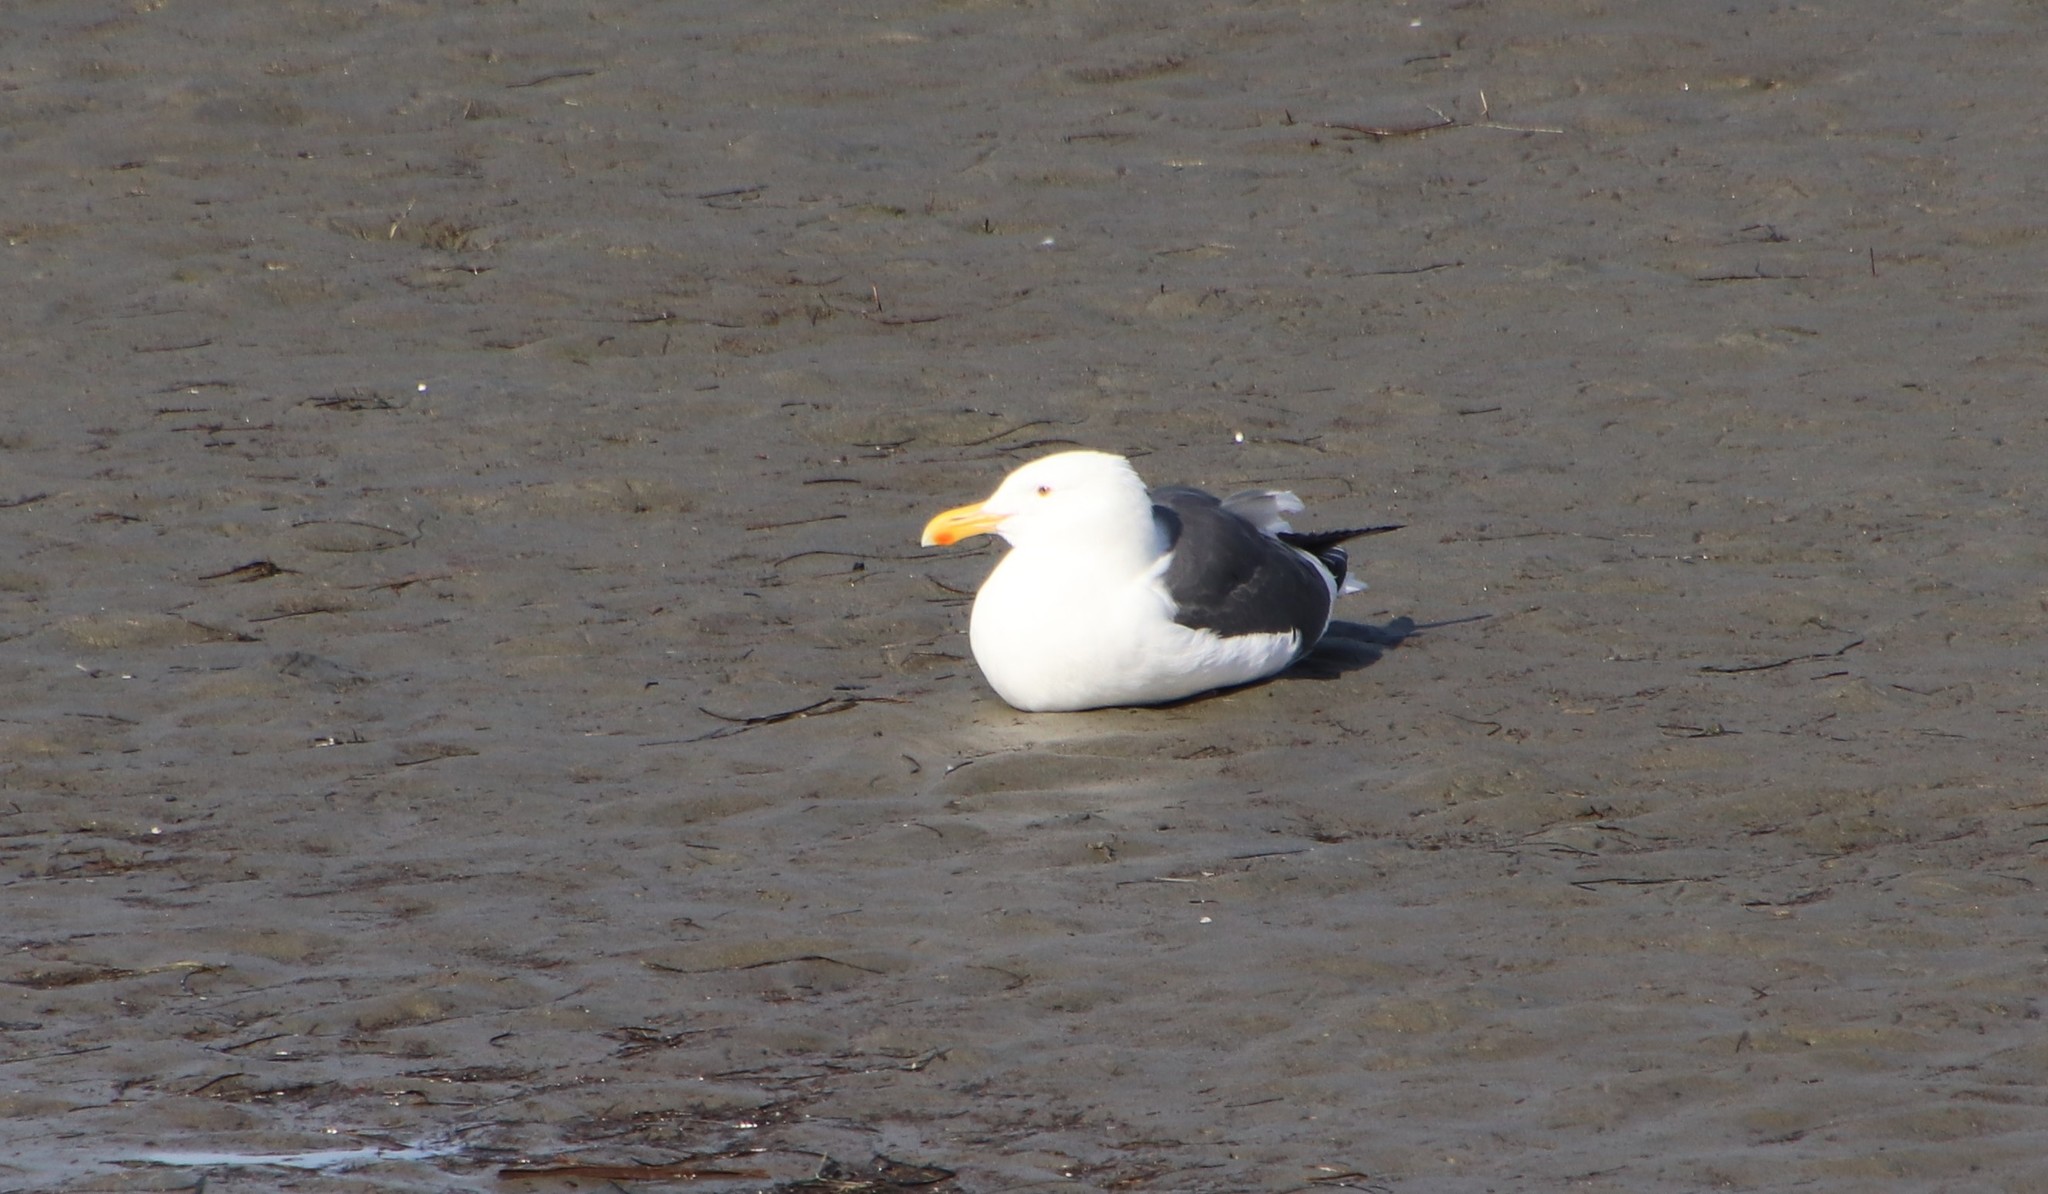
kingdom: Animalia
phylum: Chordata
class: Aves
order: Charadriiformes
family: Laridae
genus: Larus
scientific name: Larus occidentalis
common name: Western gull
